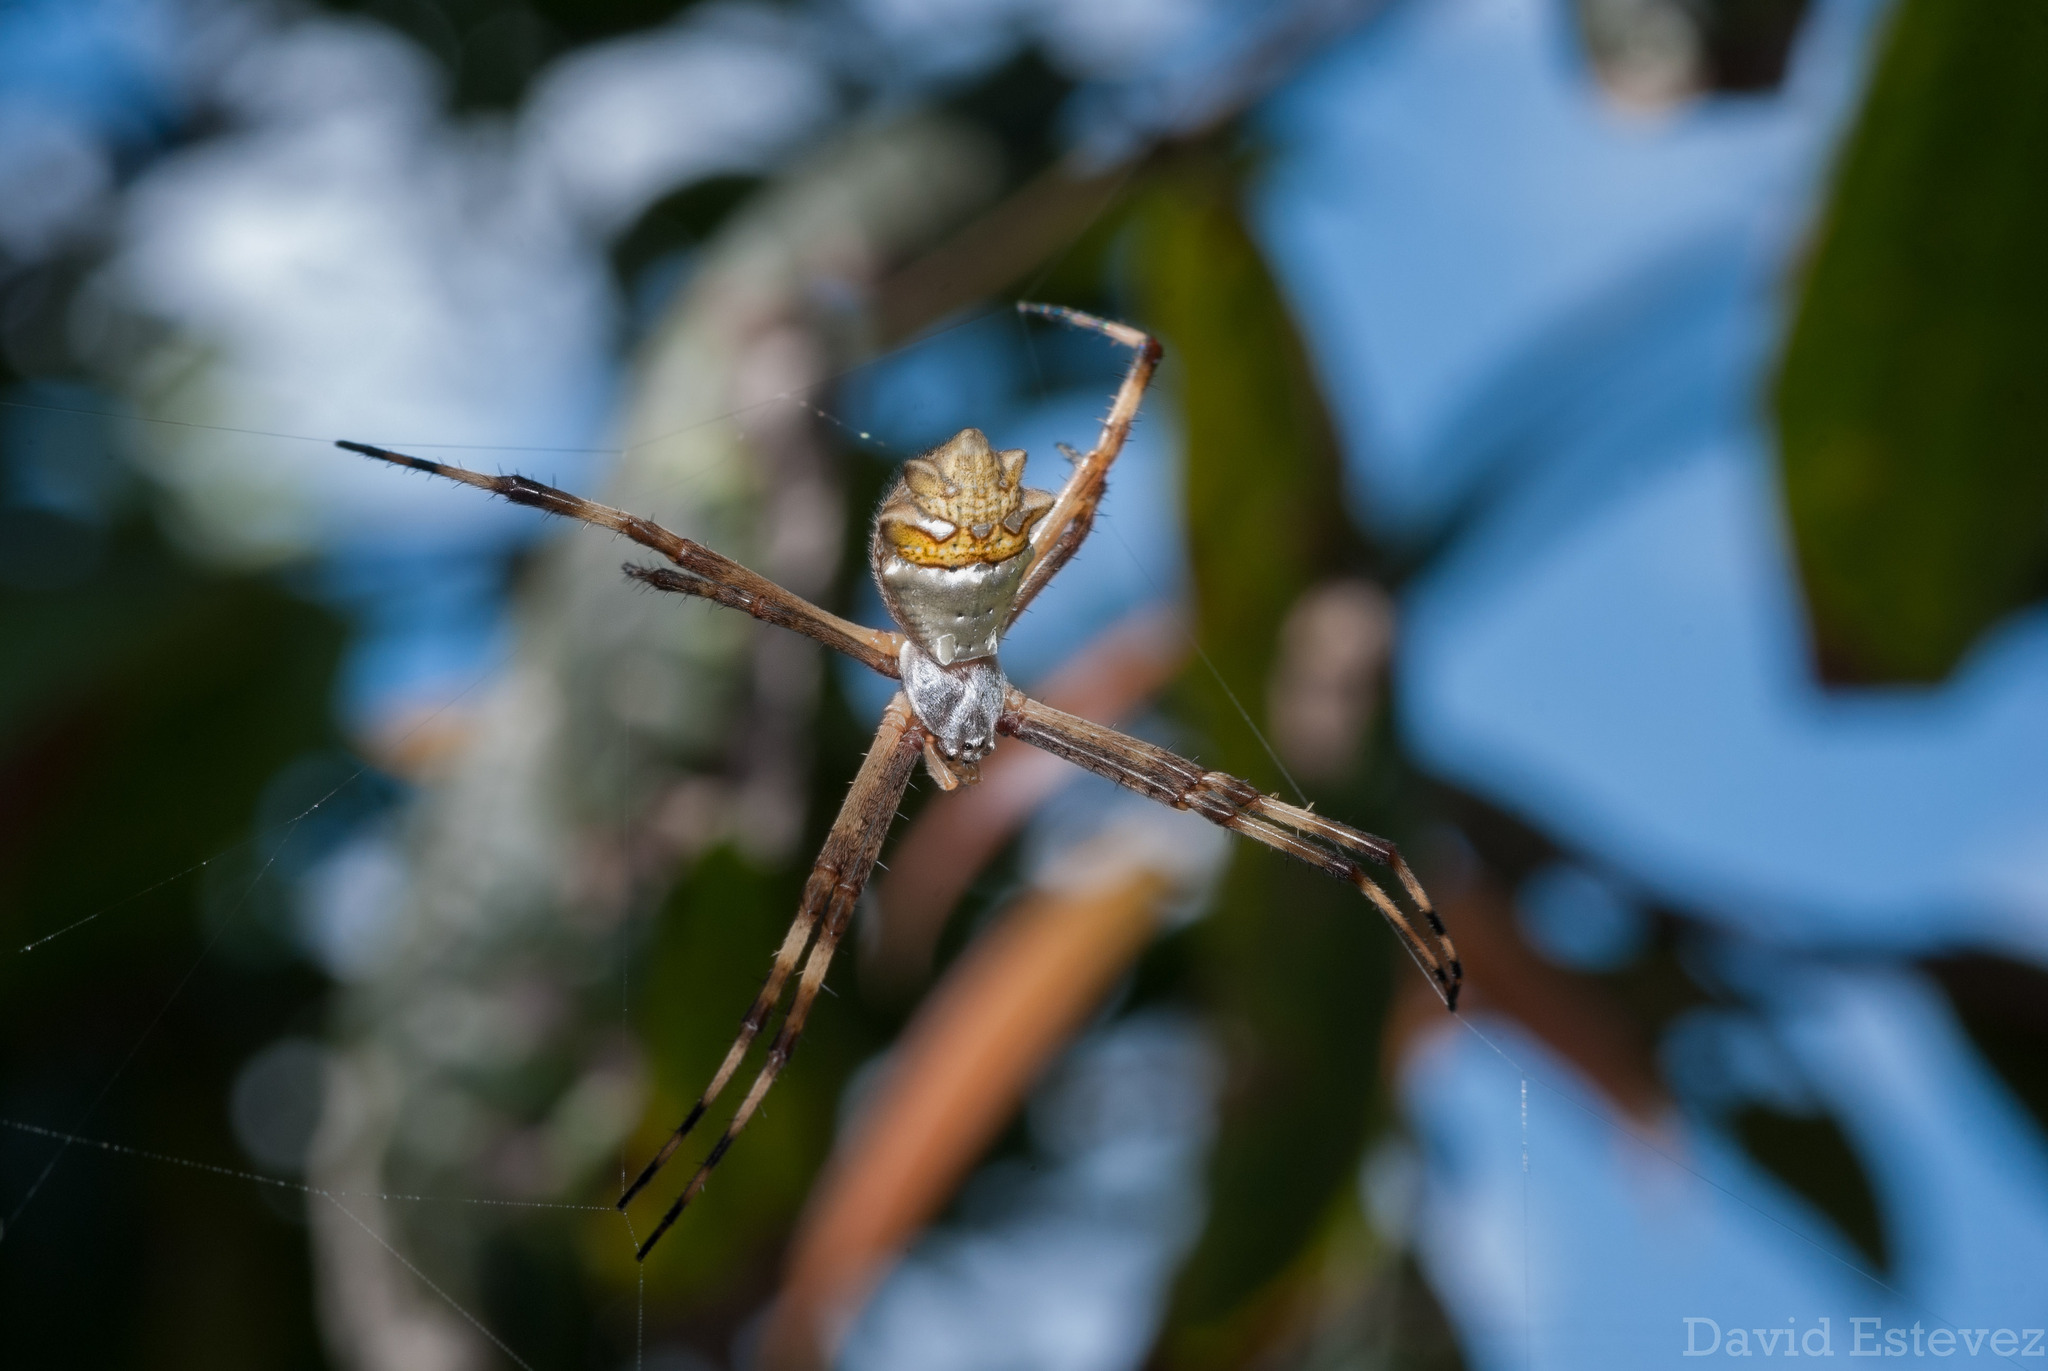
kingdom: Animalia
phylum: Arthropoda
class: Arachnida
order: Araneae
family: Araneidae
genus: Argiope
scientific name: Argiope argentata
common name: Orb weavers
